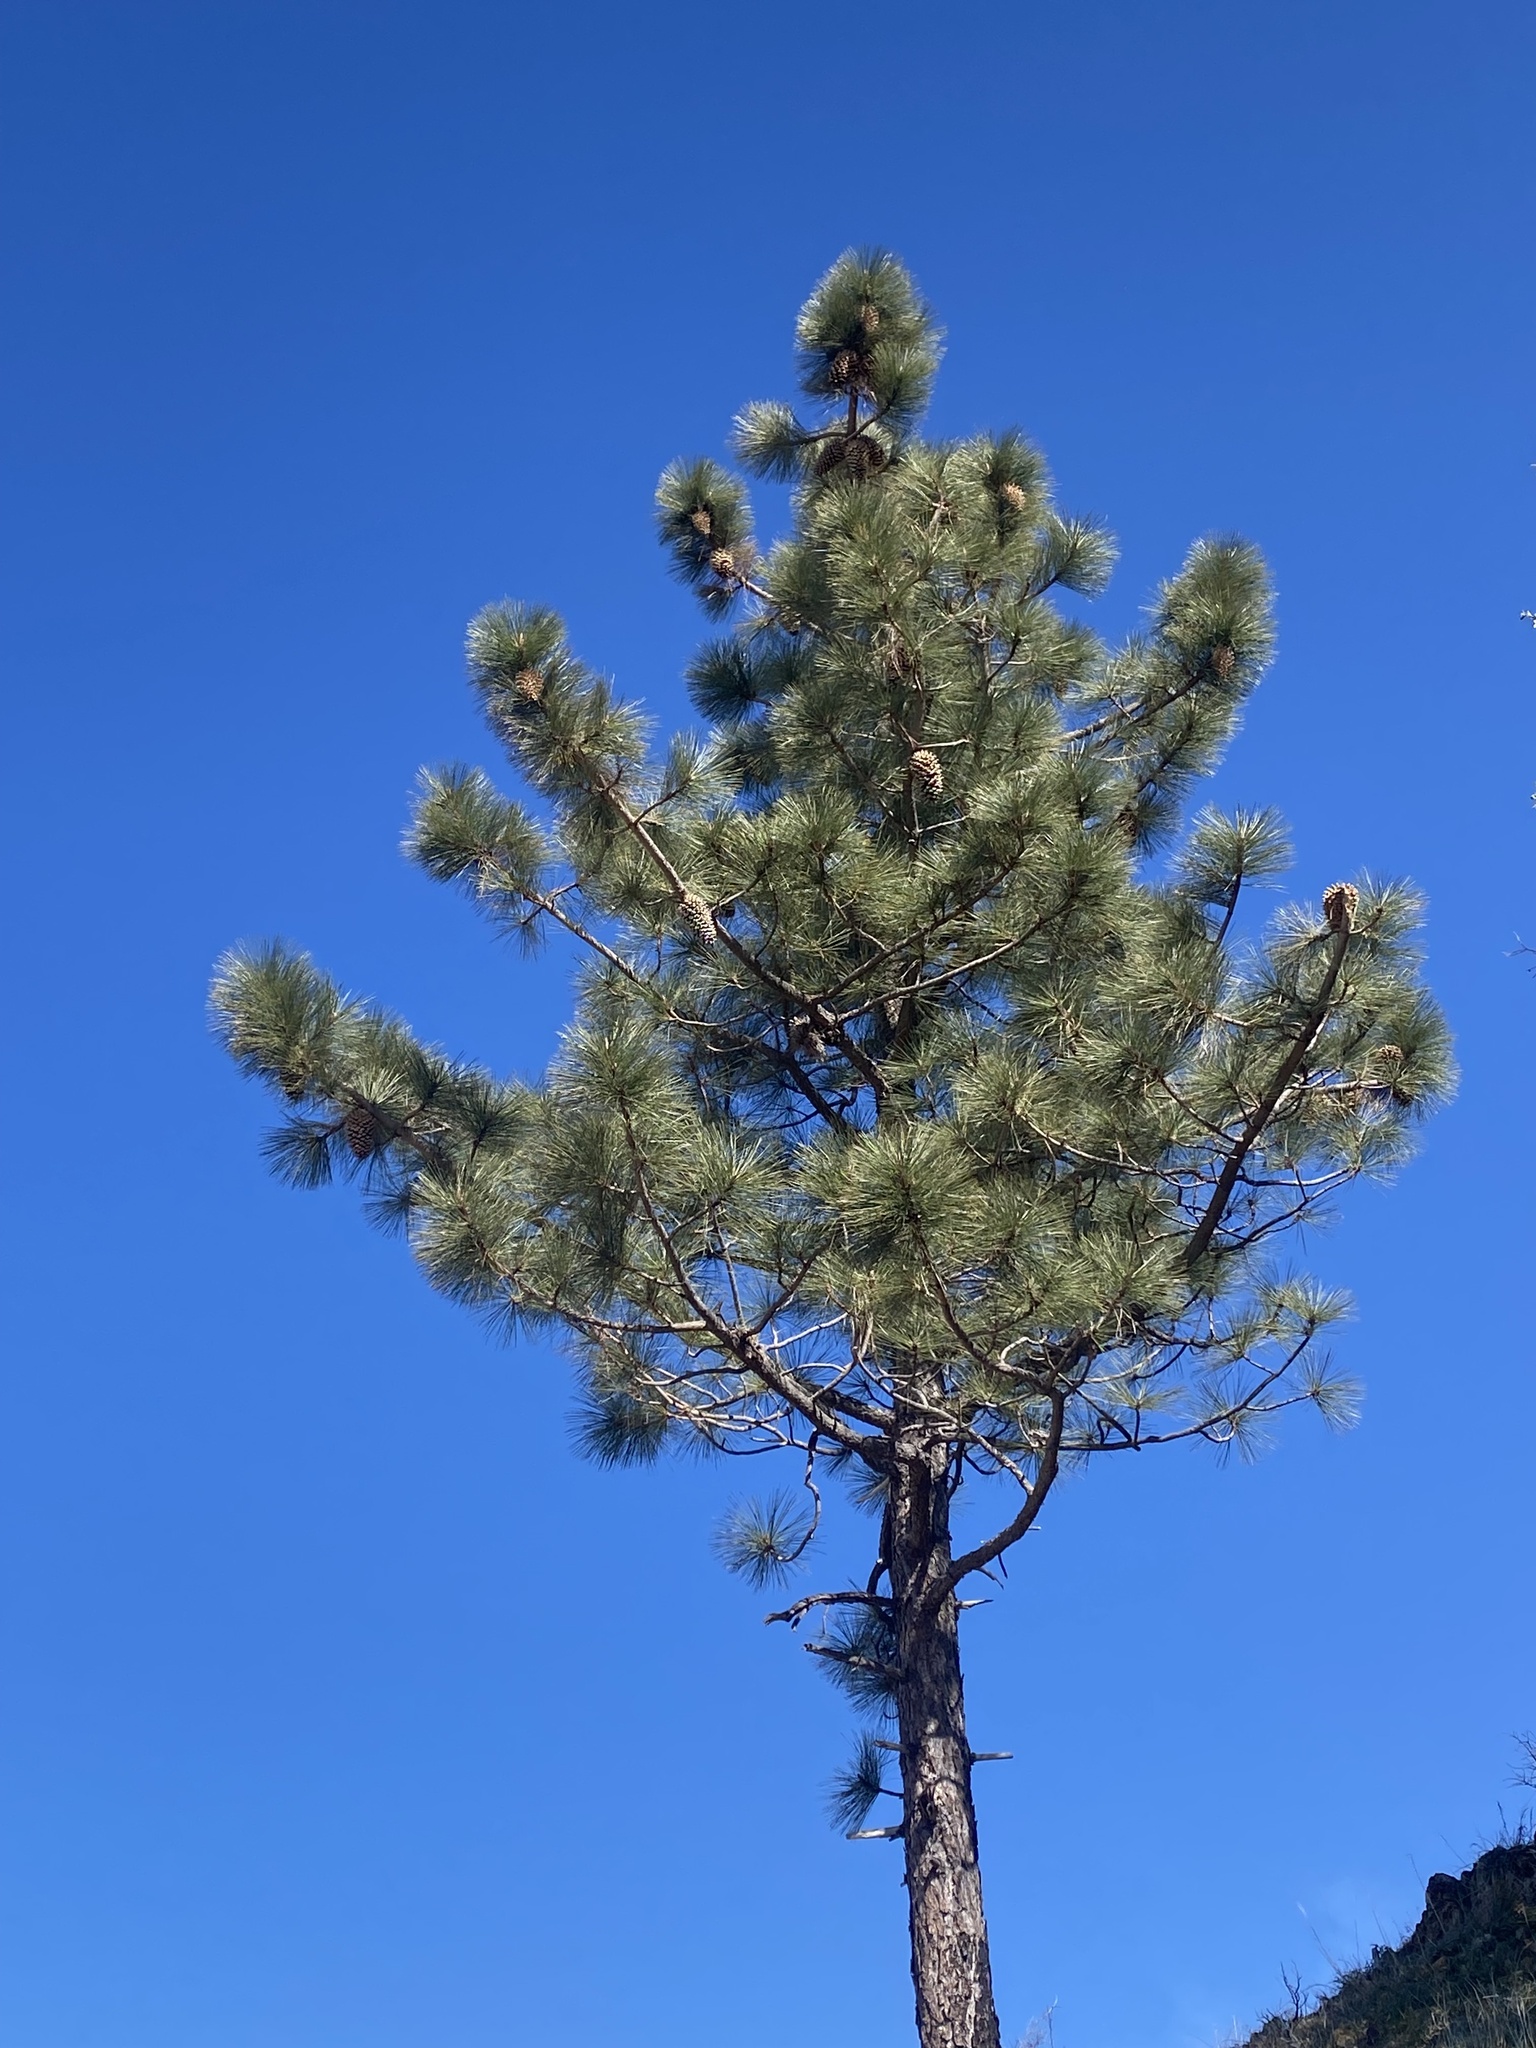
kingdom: Plantae
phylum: Tracheophyta
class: Pinopsida
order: Pinales
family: Pinaceae
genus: Pinus
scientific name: Pinus coulteri
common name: Coulter pine
